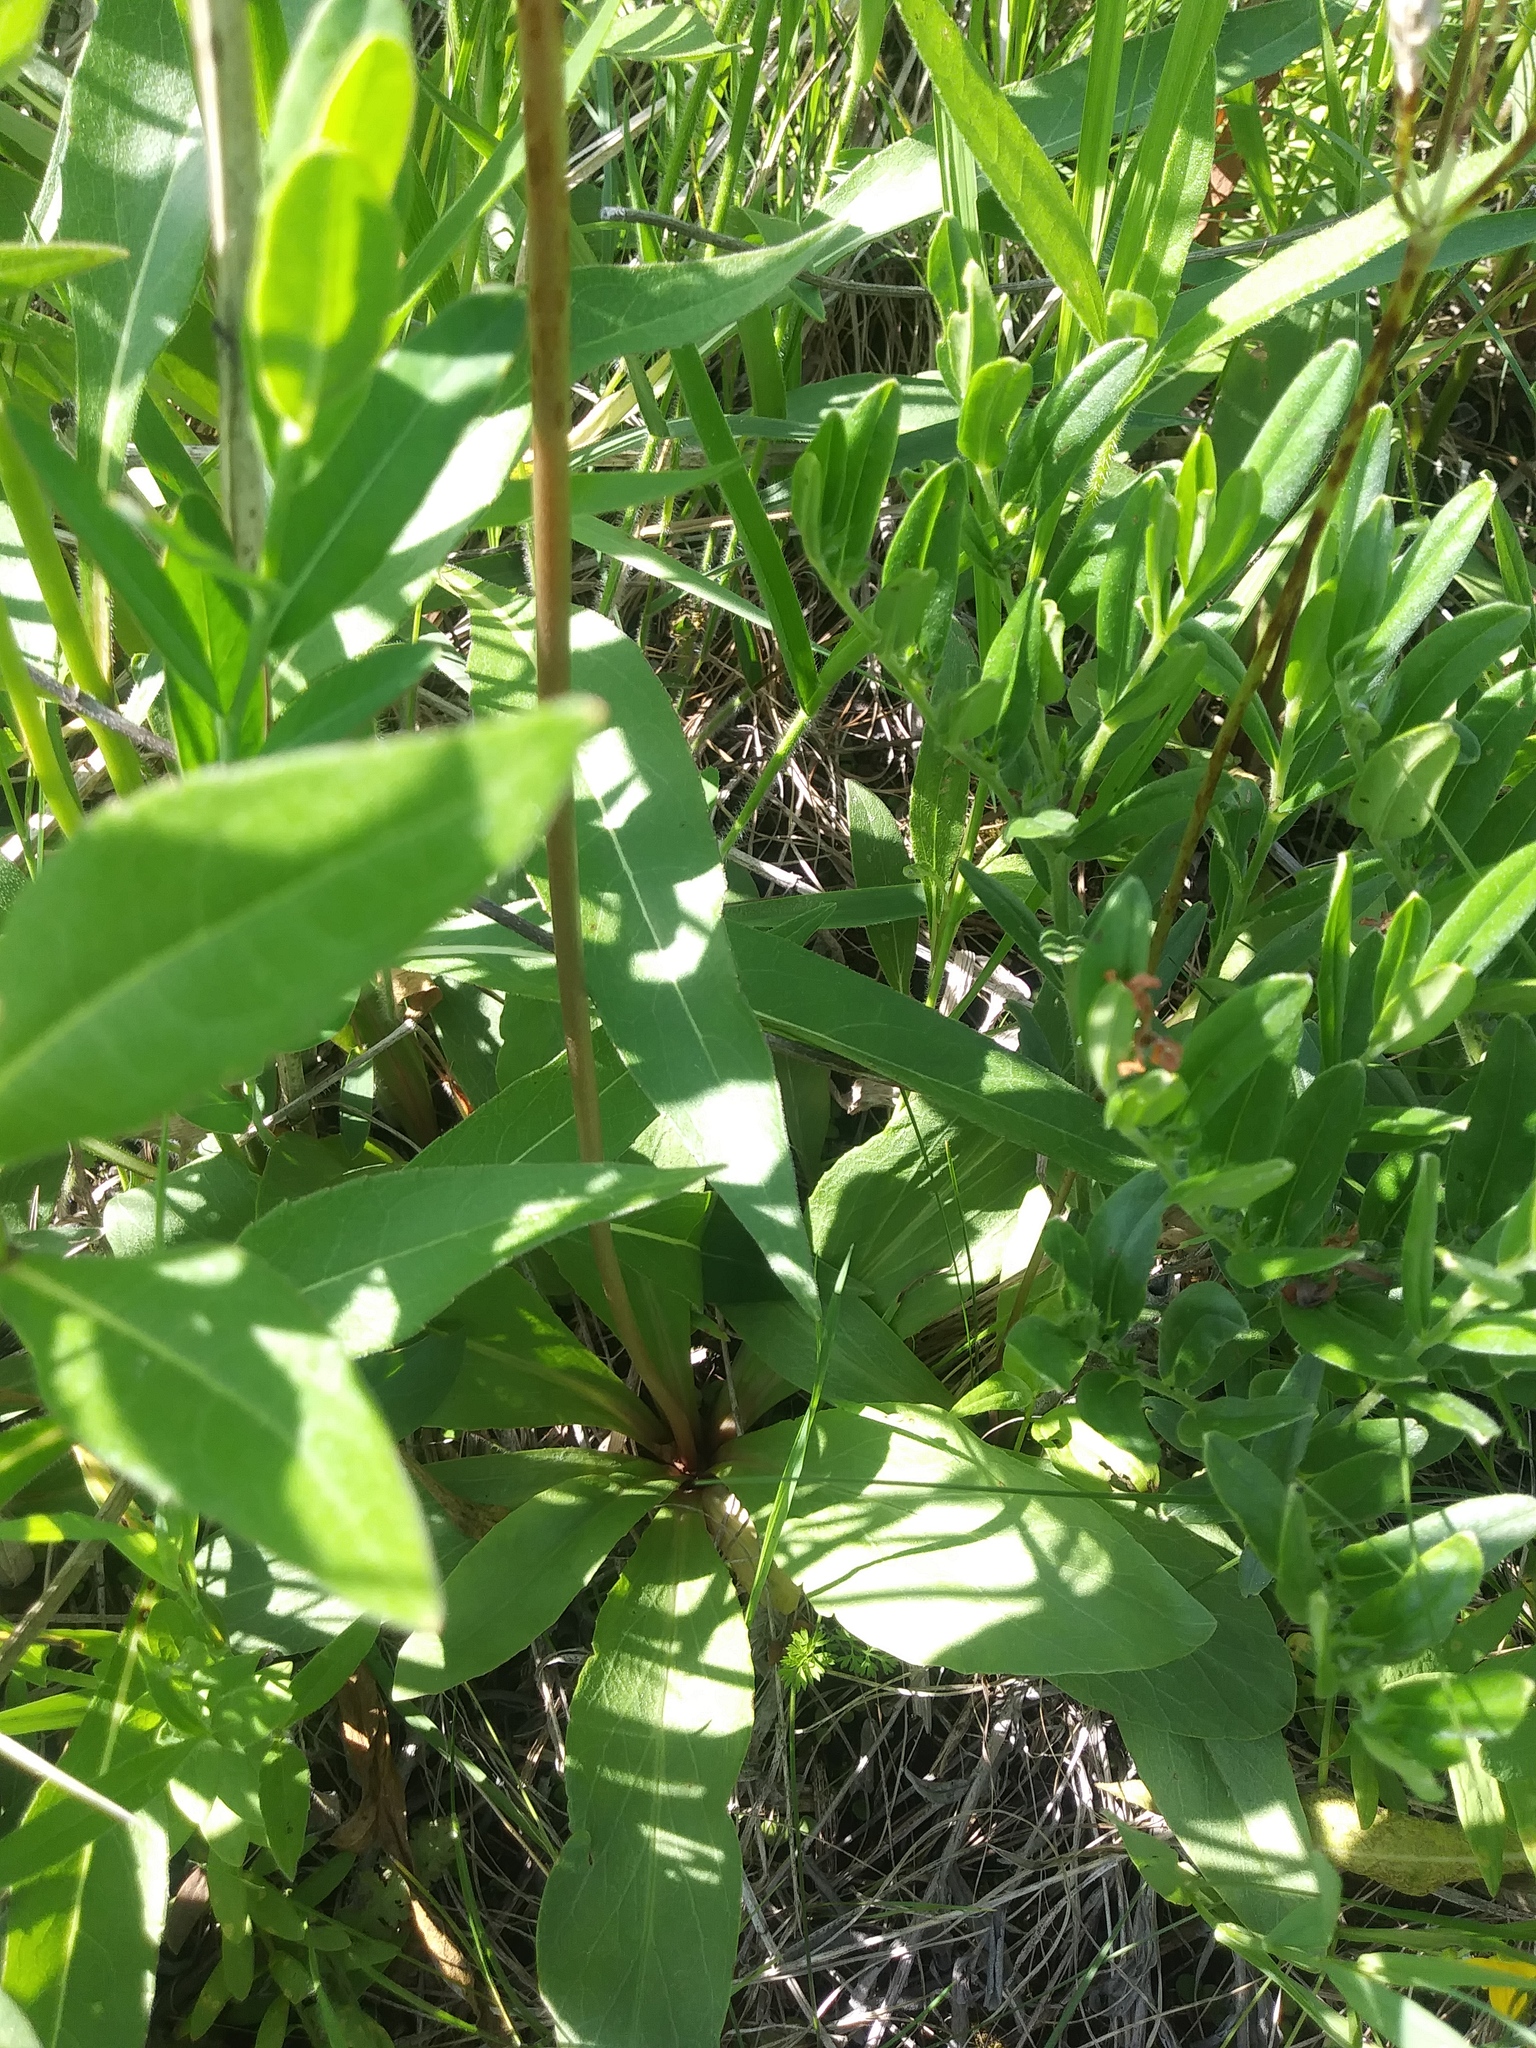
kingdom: Plantae
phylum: Tracheophyta
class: Magnoliopsida
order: Ericales
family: Primulaceae
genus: Dodecatheon
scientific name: Dodecatheon meadia
